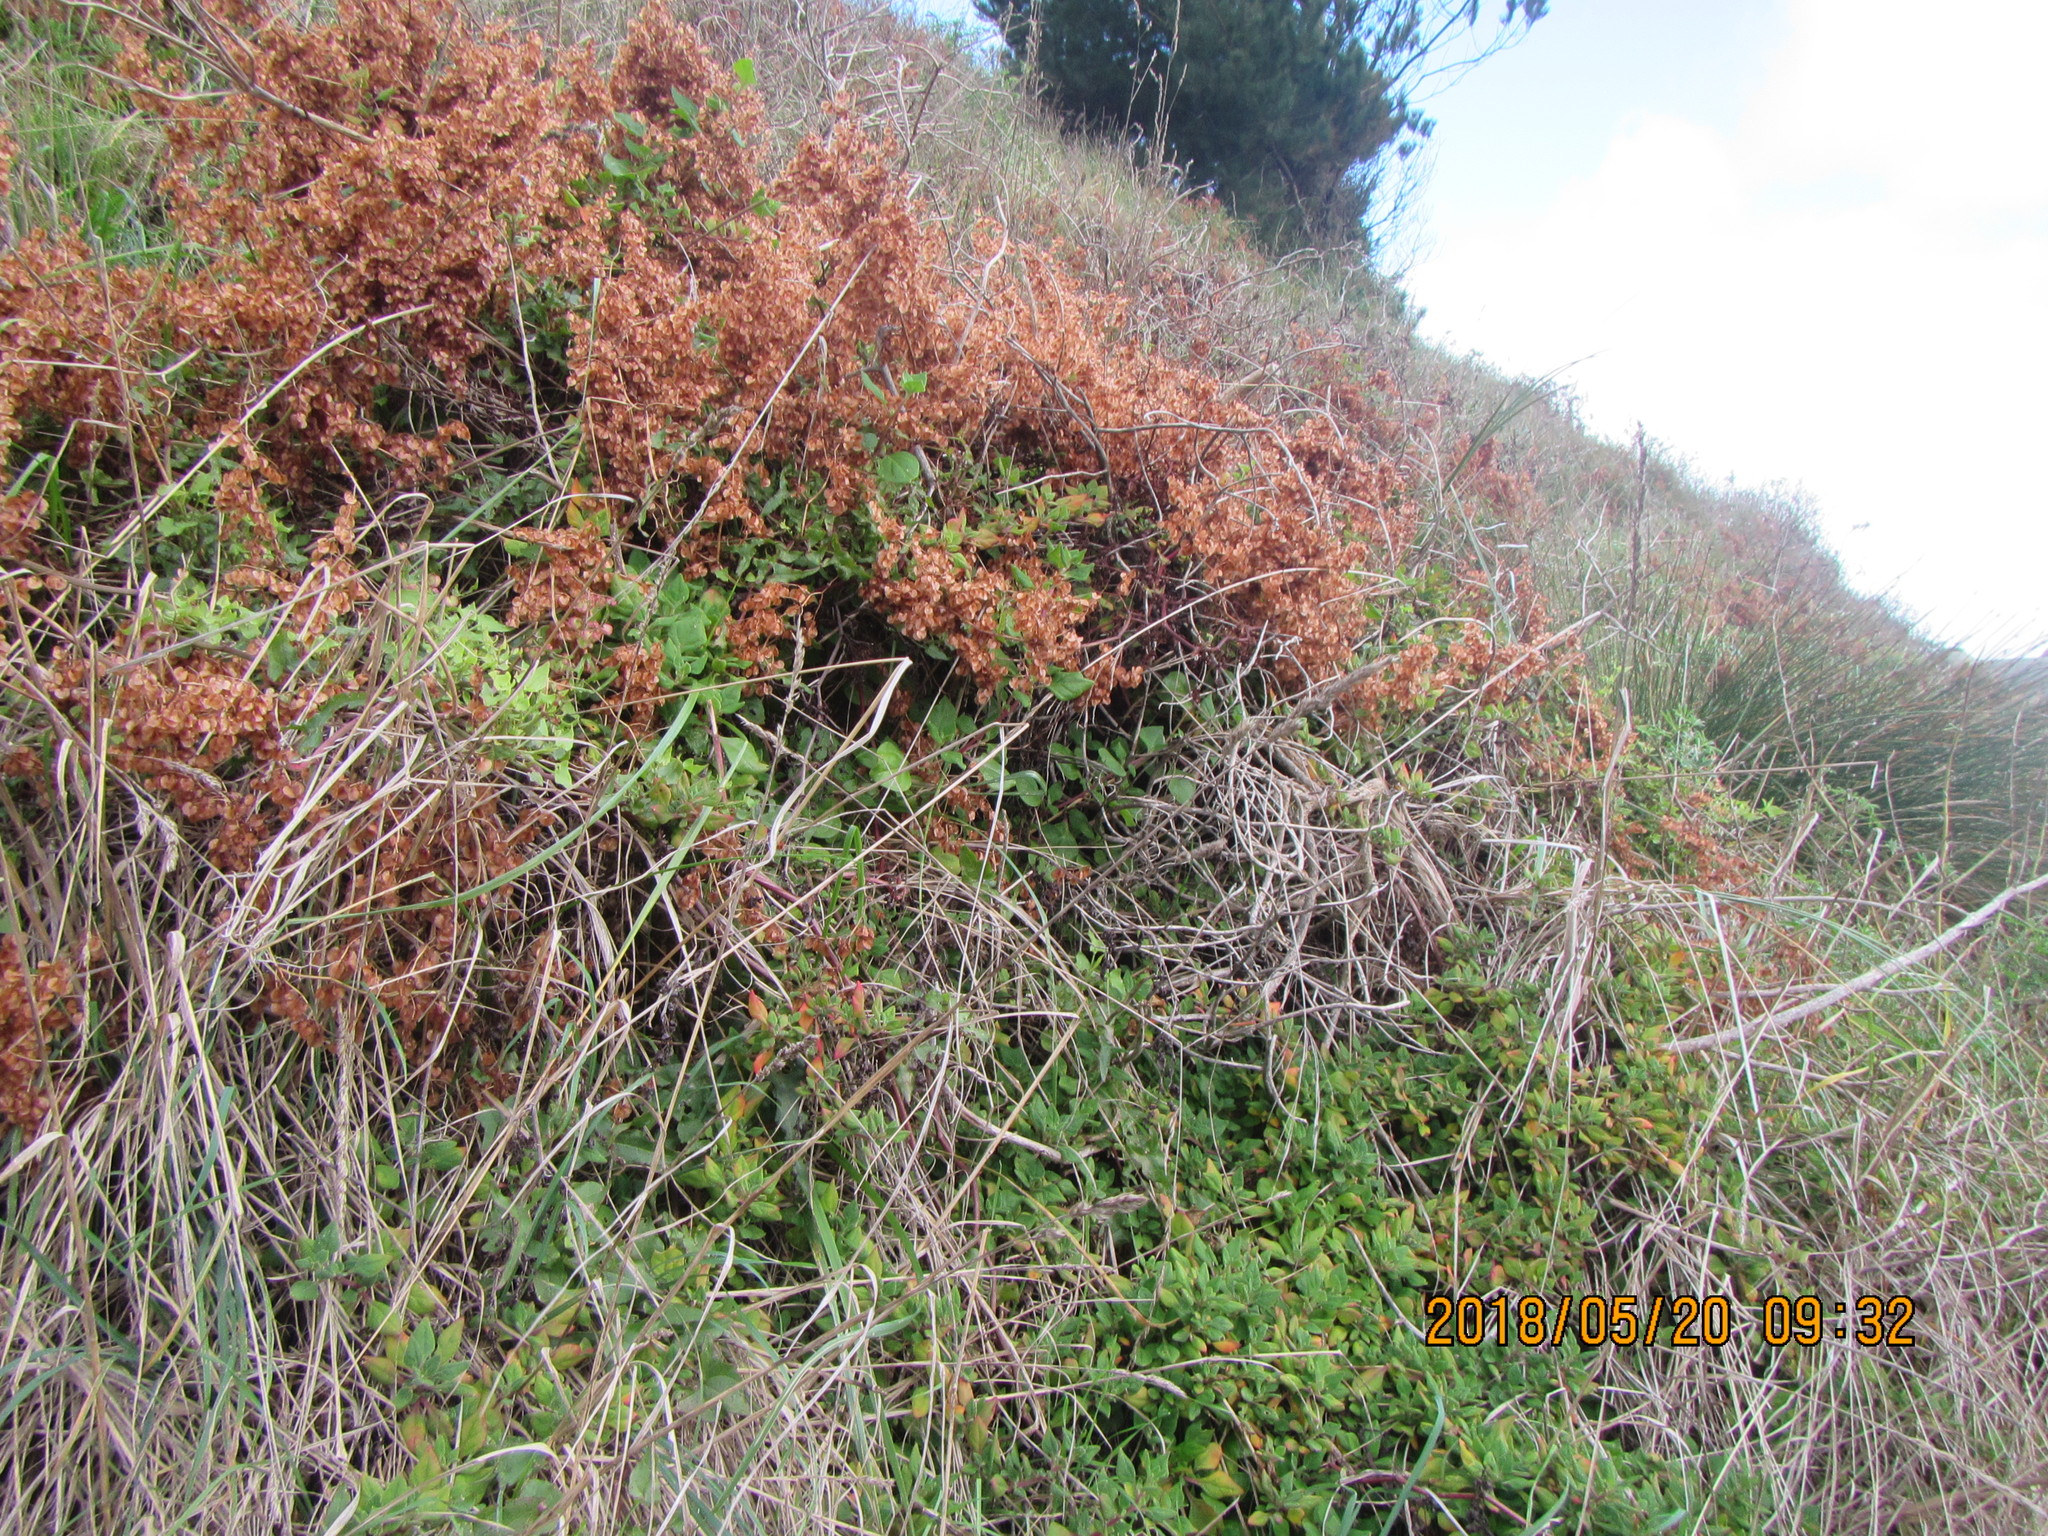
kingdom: Plantae
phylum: Tracheophyta
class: Magnoliopsida
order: Caryophyllales
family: Aizoaceae
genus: Tetragonia
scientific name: Tetragonia implexicoma
